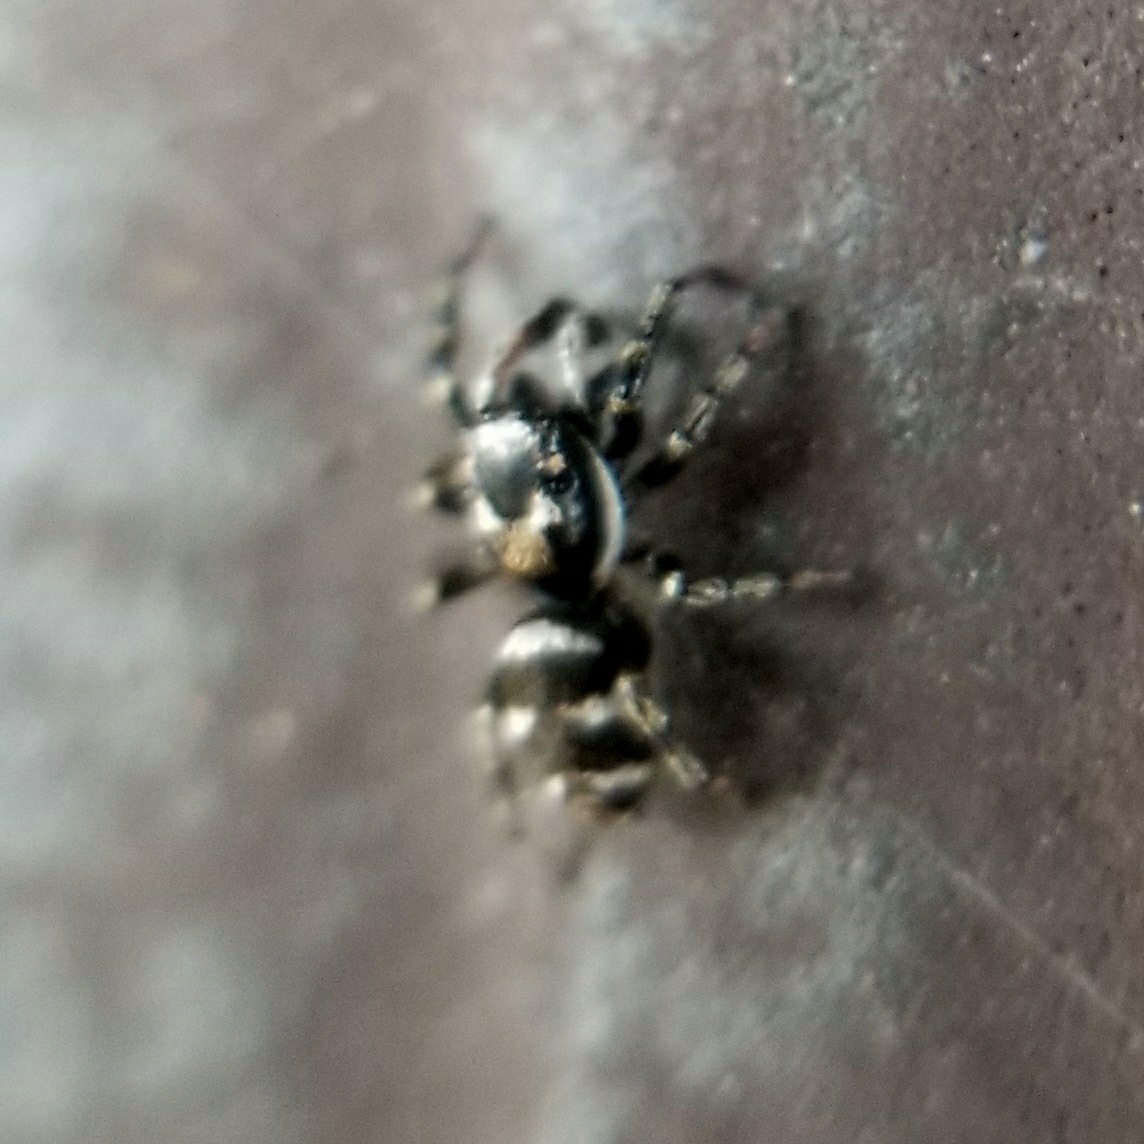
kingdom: Animalia
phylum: Arthropoda
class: Arachnida
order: Araneae
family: Salticidae
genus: Salticus
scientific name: Salticus scenicus
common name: Zebra jumper
